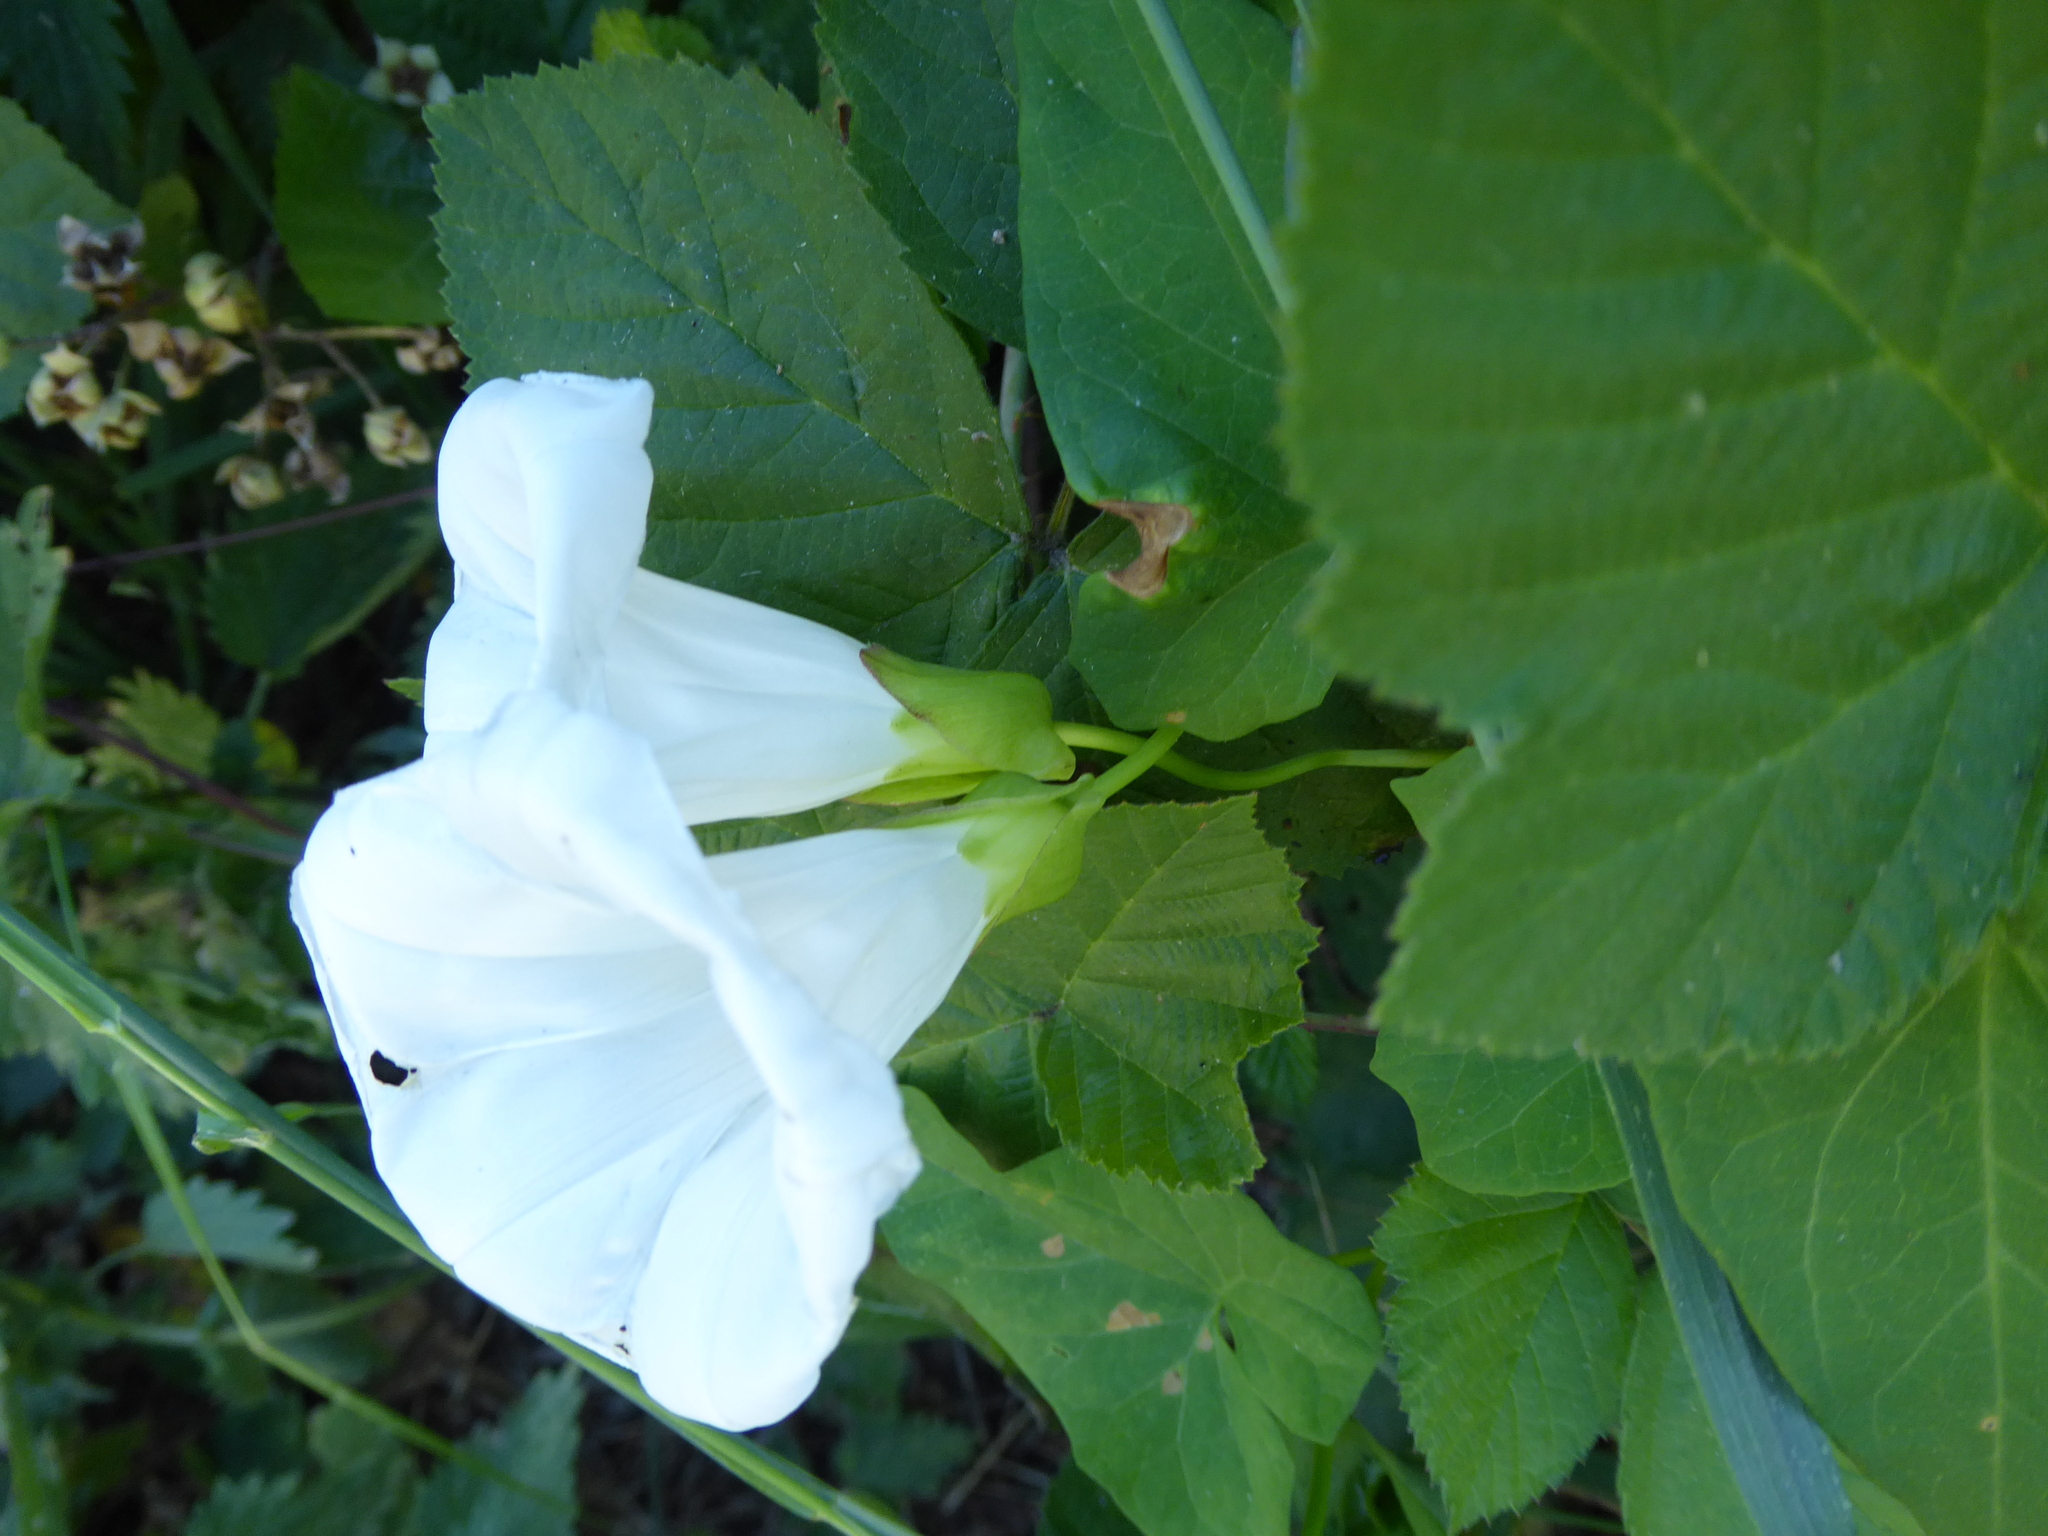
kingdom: Plantae
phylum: Tracheophyta
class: Magnoliopsida
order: Solanales
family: Convolvulaceae
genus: Calystegia
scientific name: Calystegia sepium
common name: Hedge bindweed
